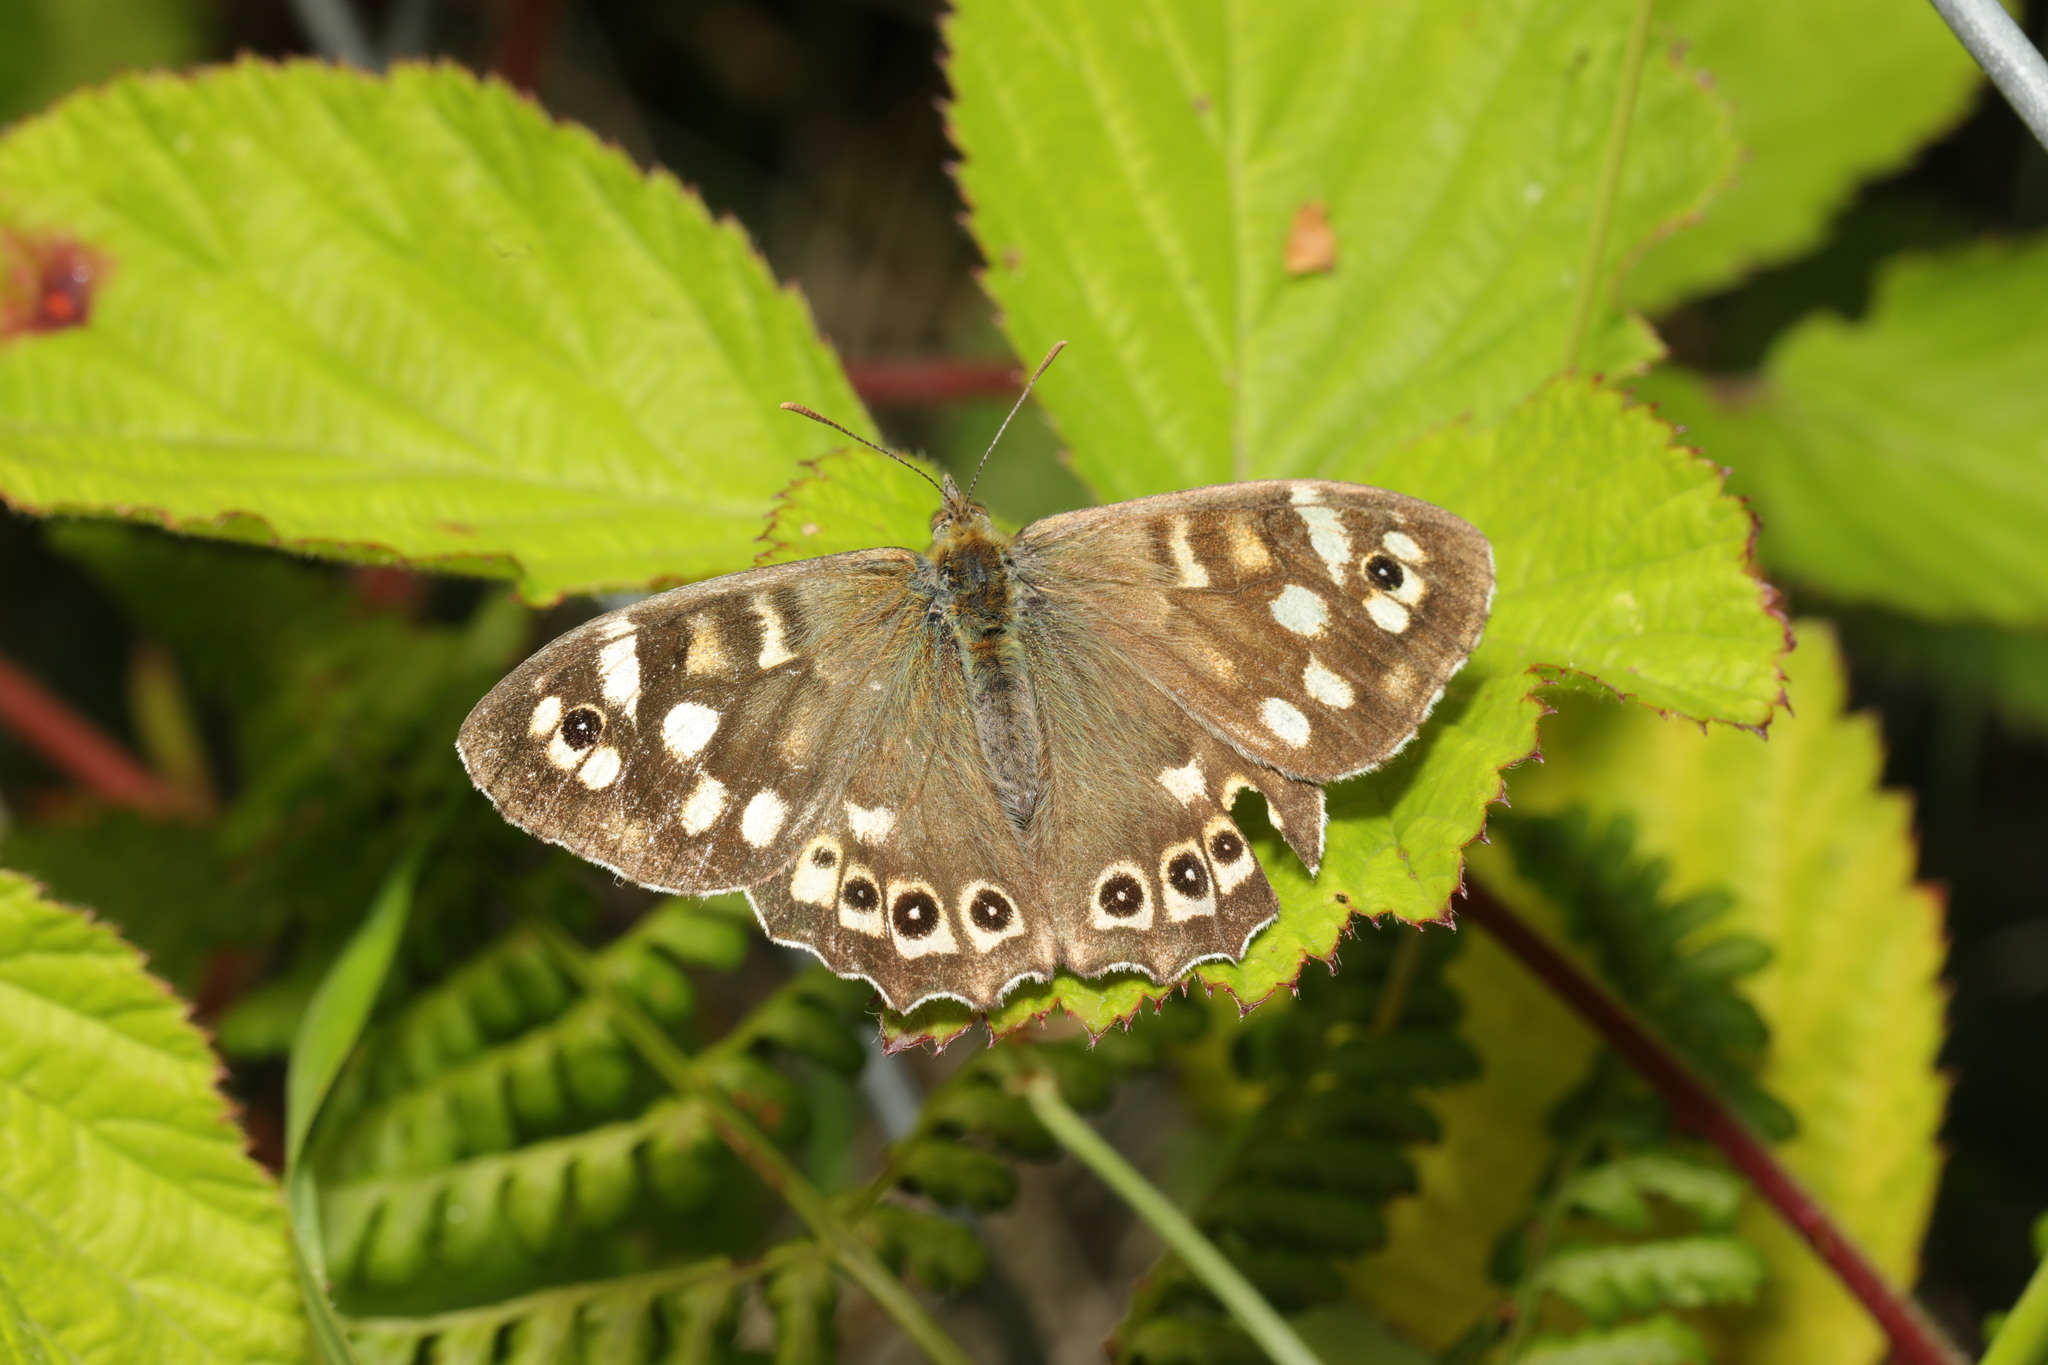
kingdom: Animalia
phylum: Arthropoda
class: Insecta
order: Lepidoptera
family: Nymphalidae
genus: Pararge
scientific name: Pararge aegeria
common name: Speckled wood
